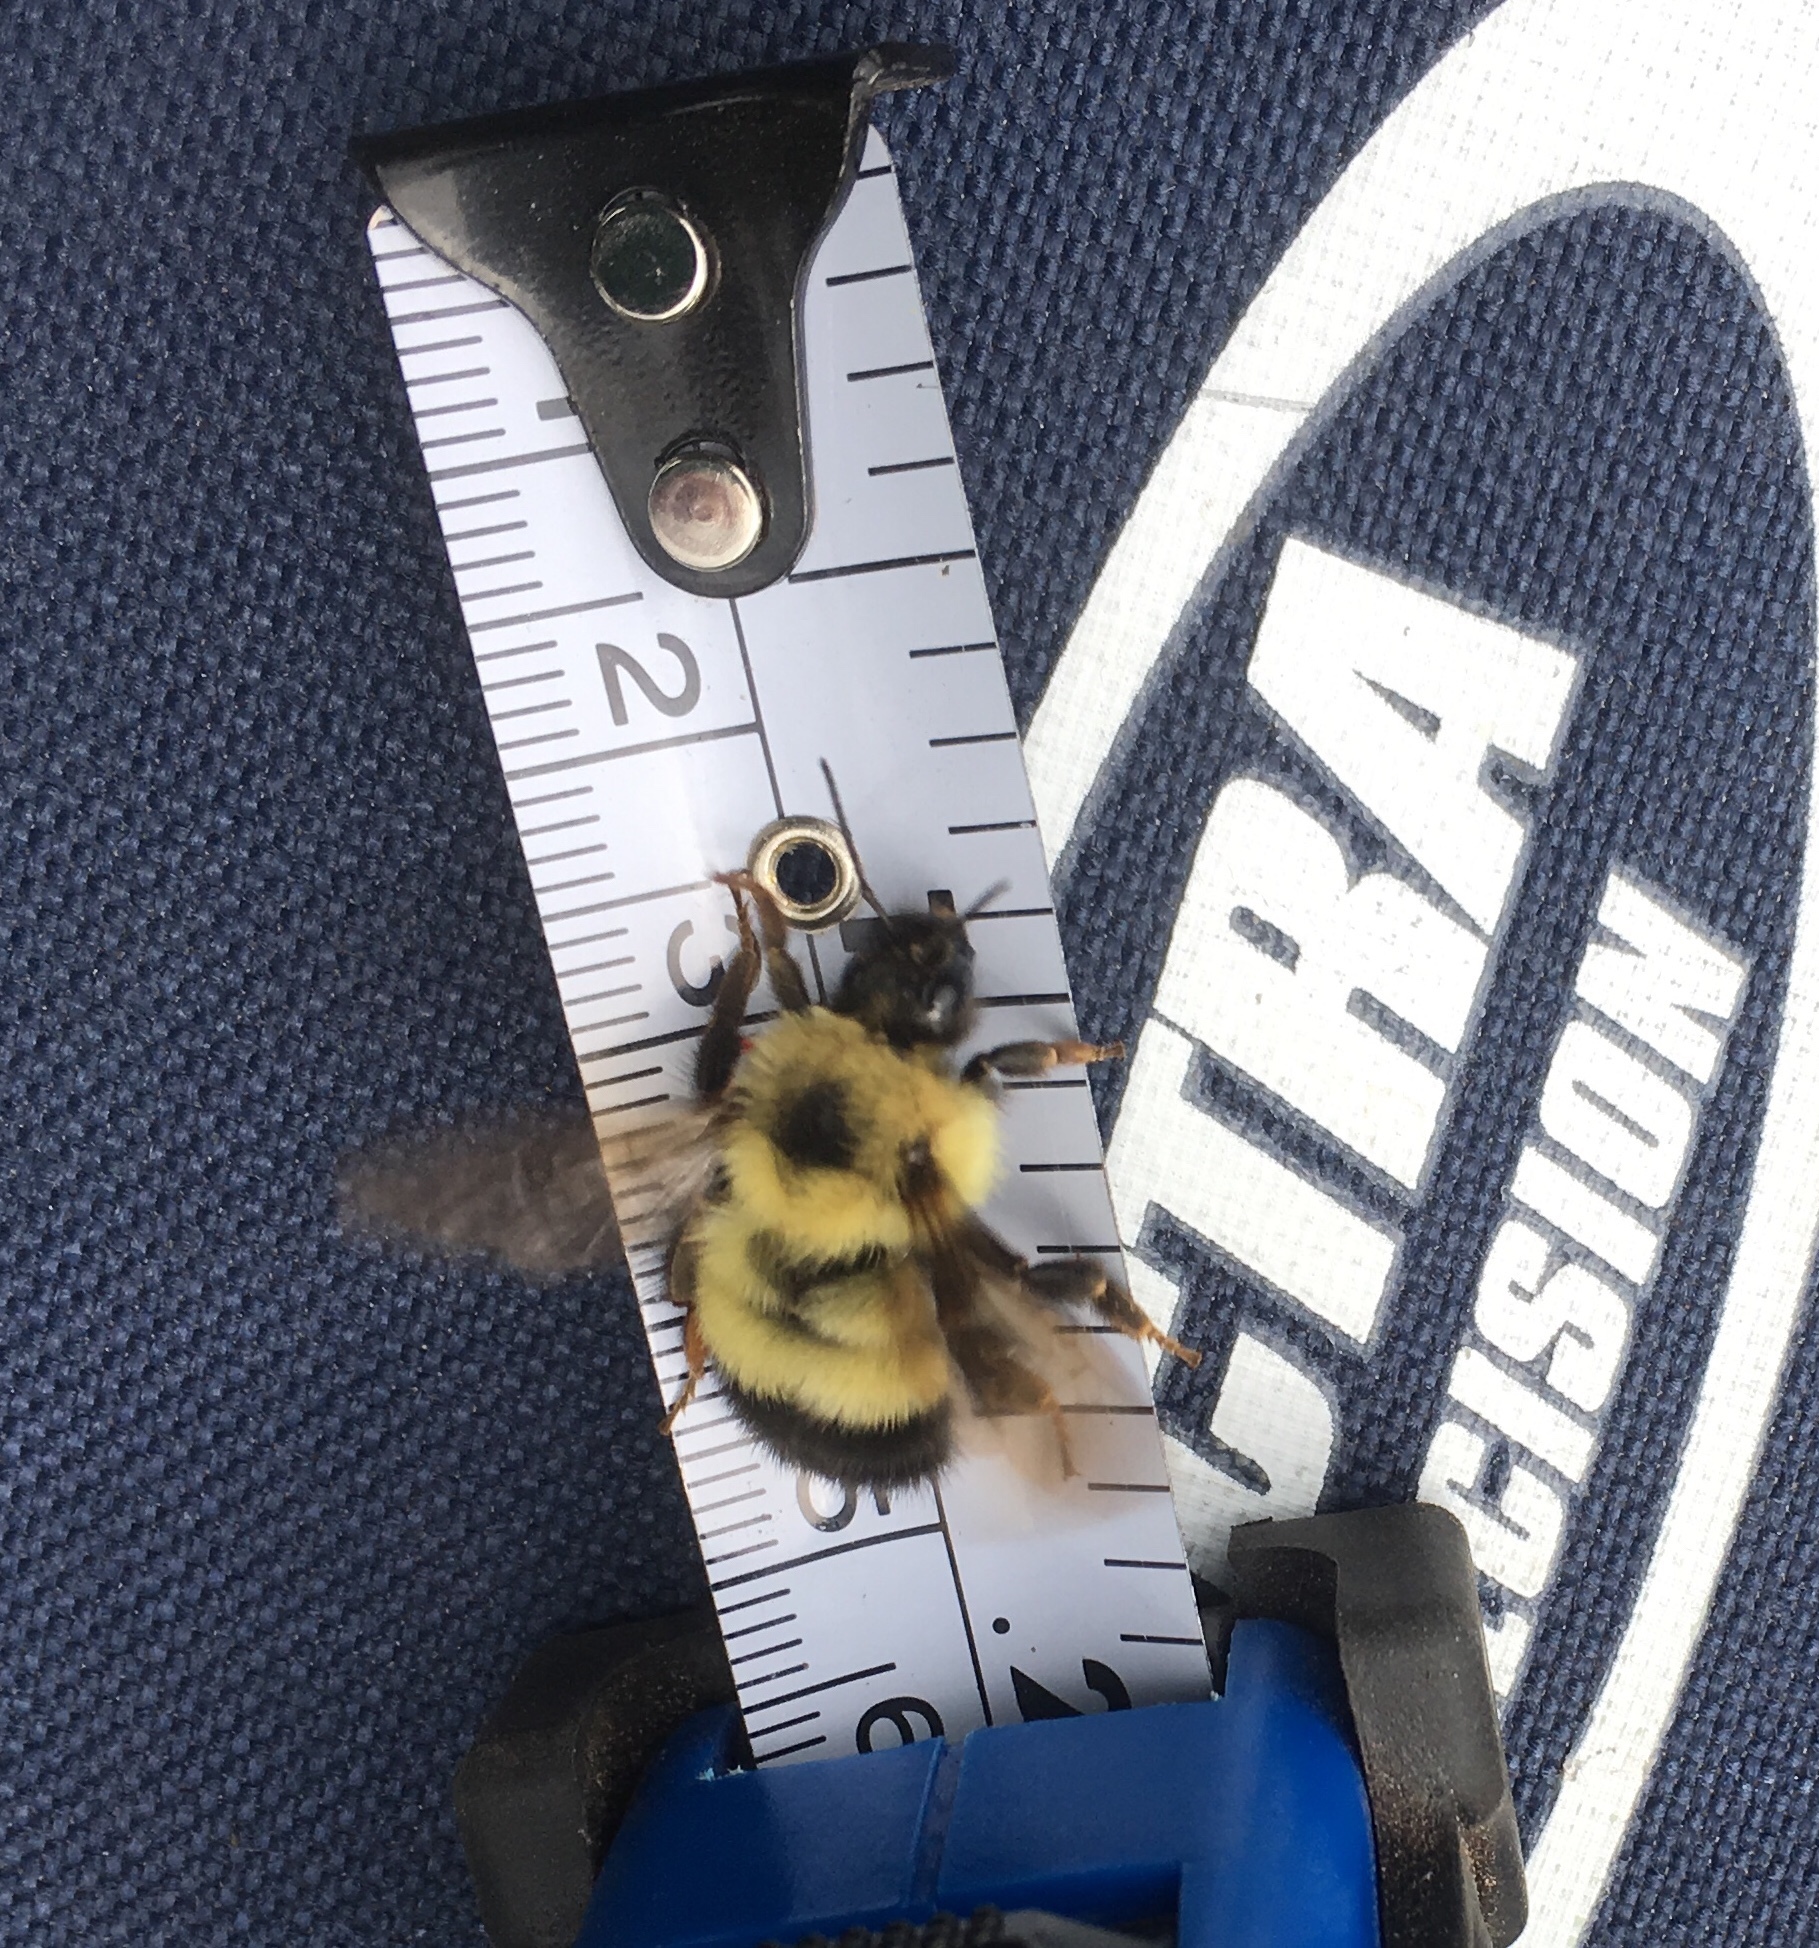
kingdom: Animalia
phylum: Arthropoda
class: Insecta
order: Hymenoptera
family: Apidae
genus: Pyrobombus
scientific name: Pyrobombus
